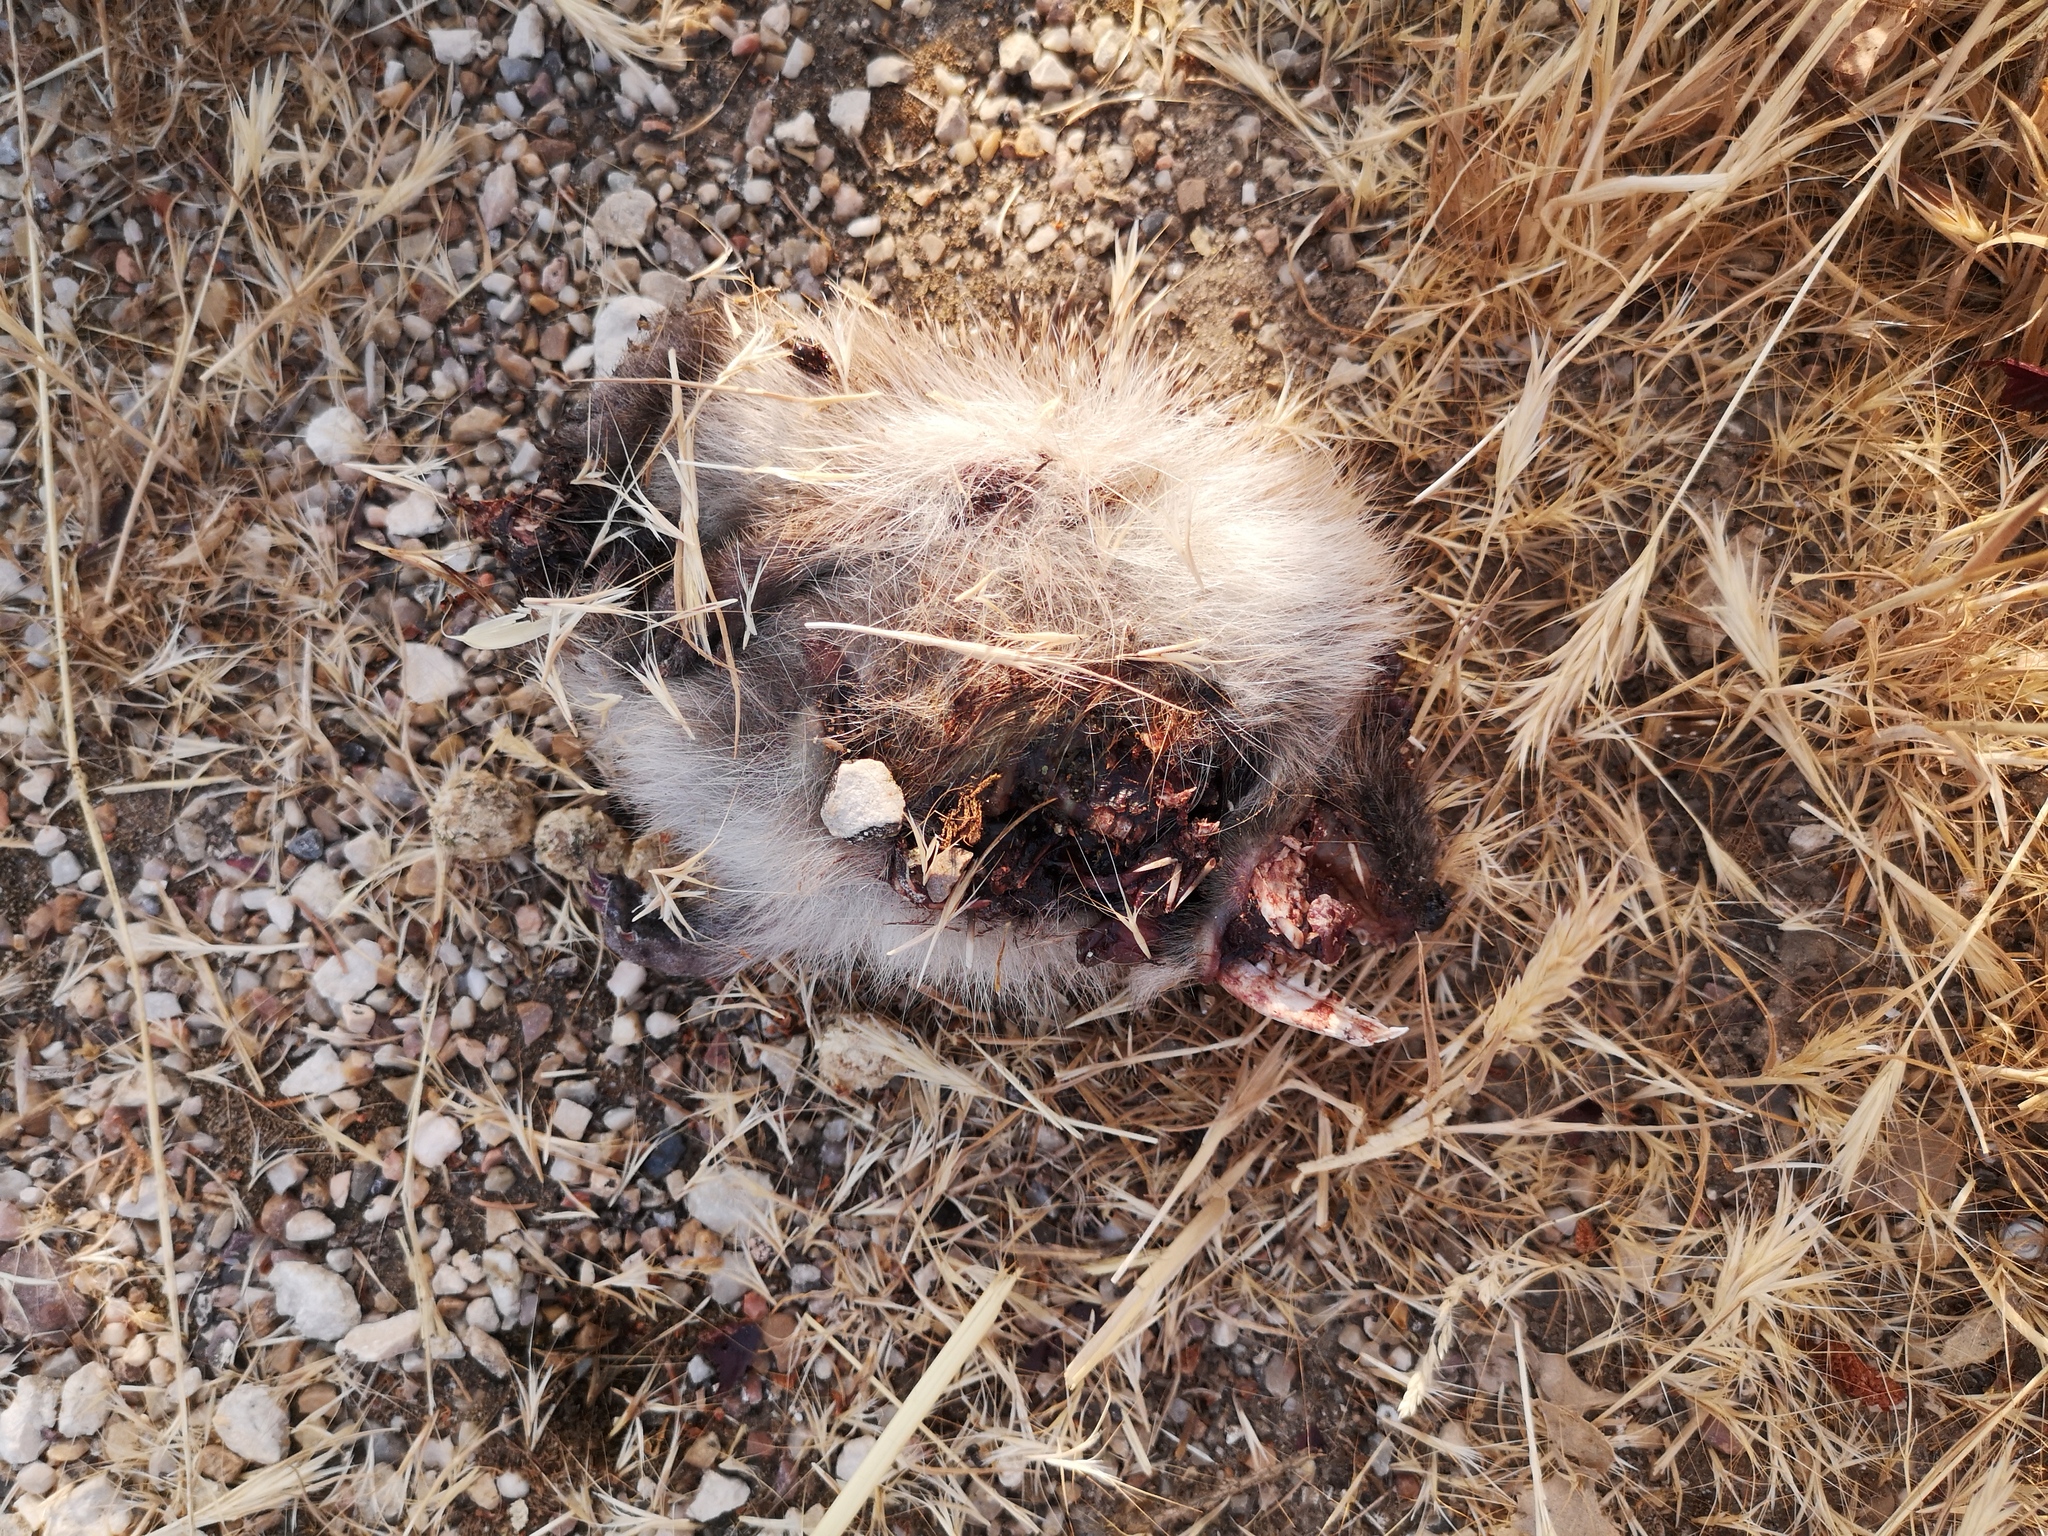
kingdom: Animalia
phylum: Chordata
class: Mammalia
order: Erinaceomorpha
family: Erinaceidae
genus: Erinaceus
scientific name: Erinaceus europaeus
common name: West european hedgehog
